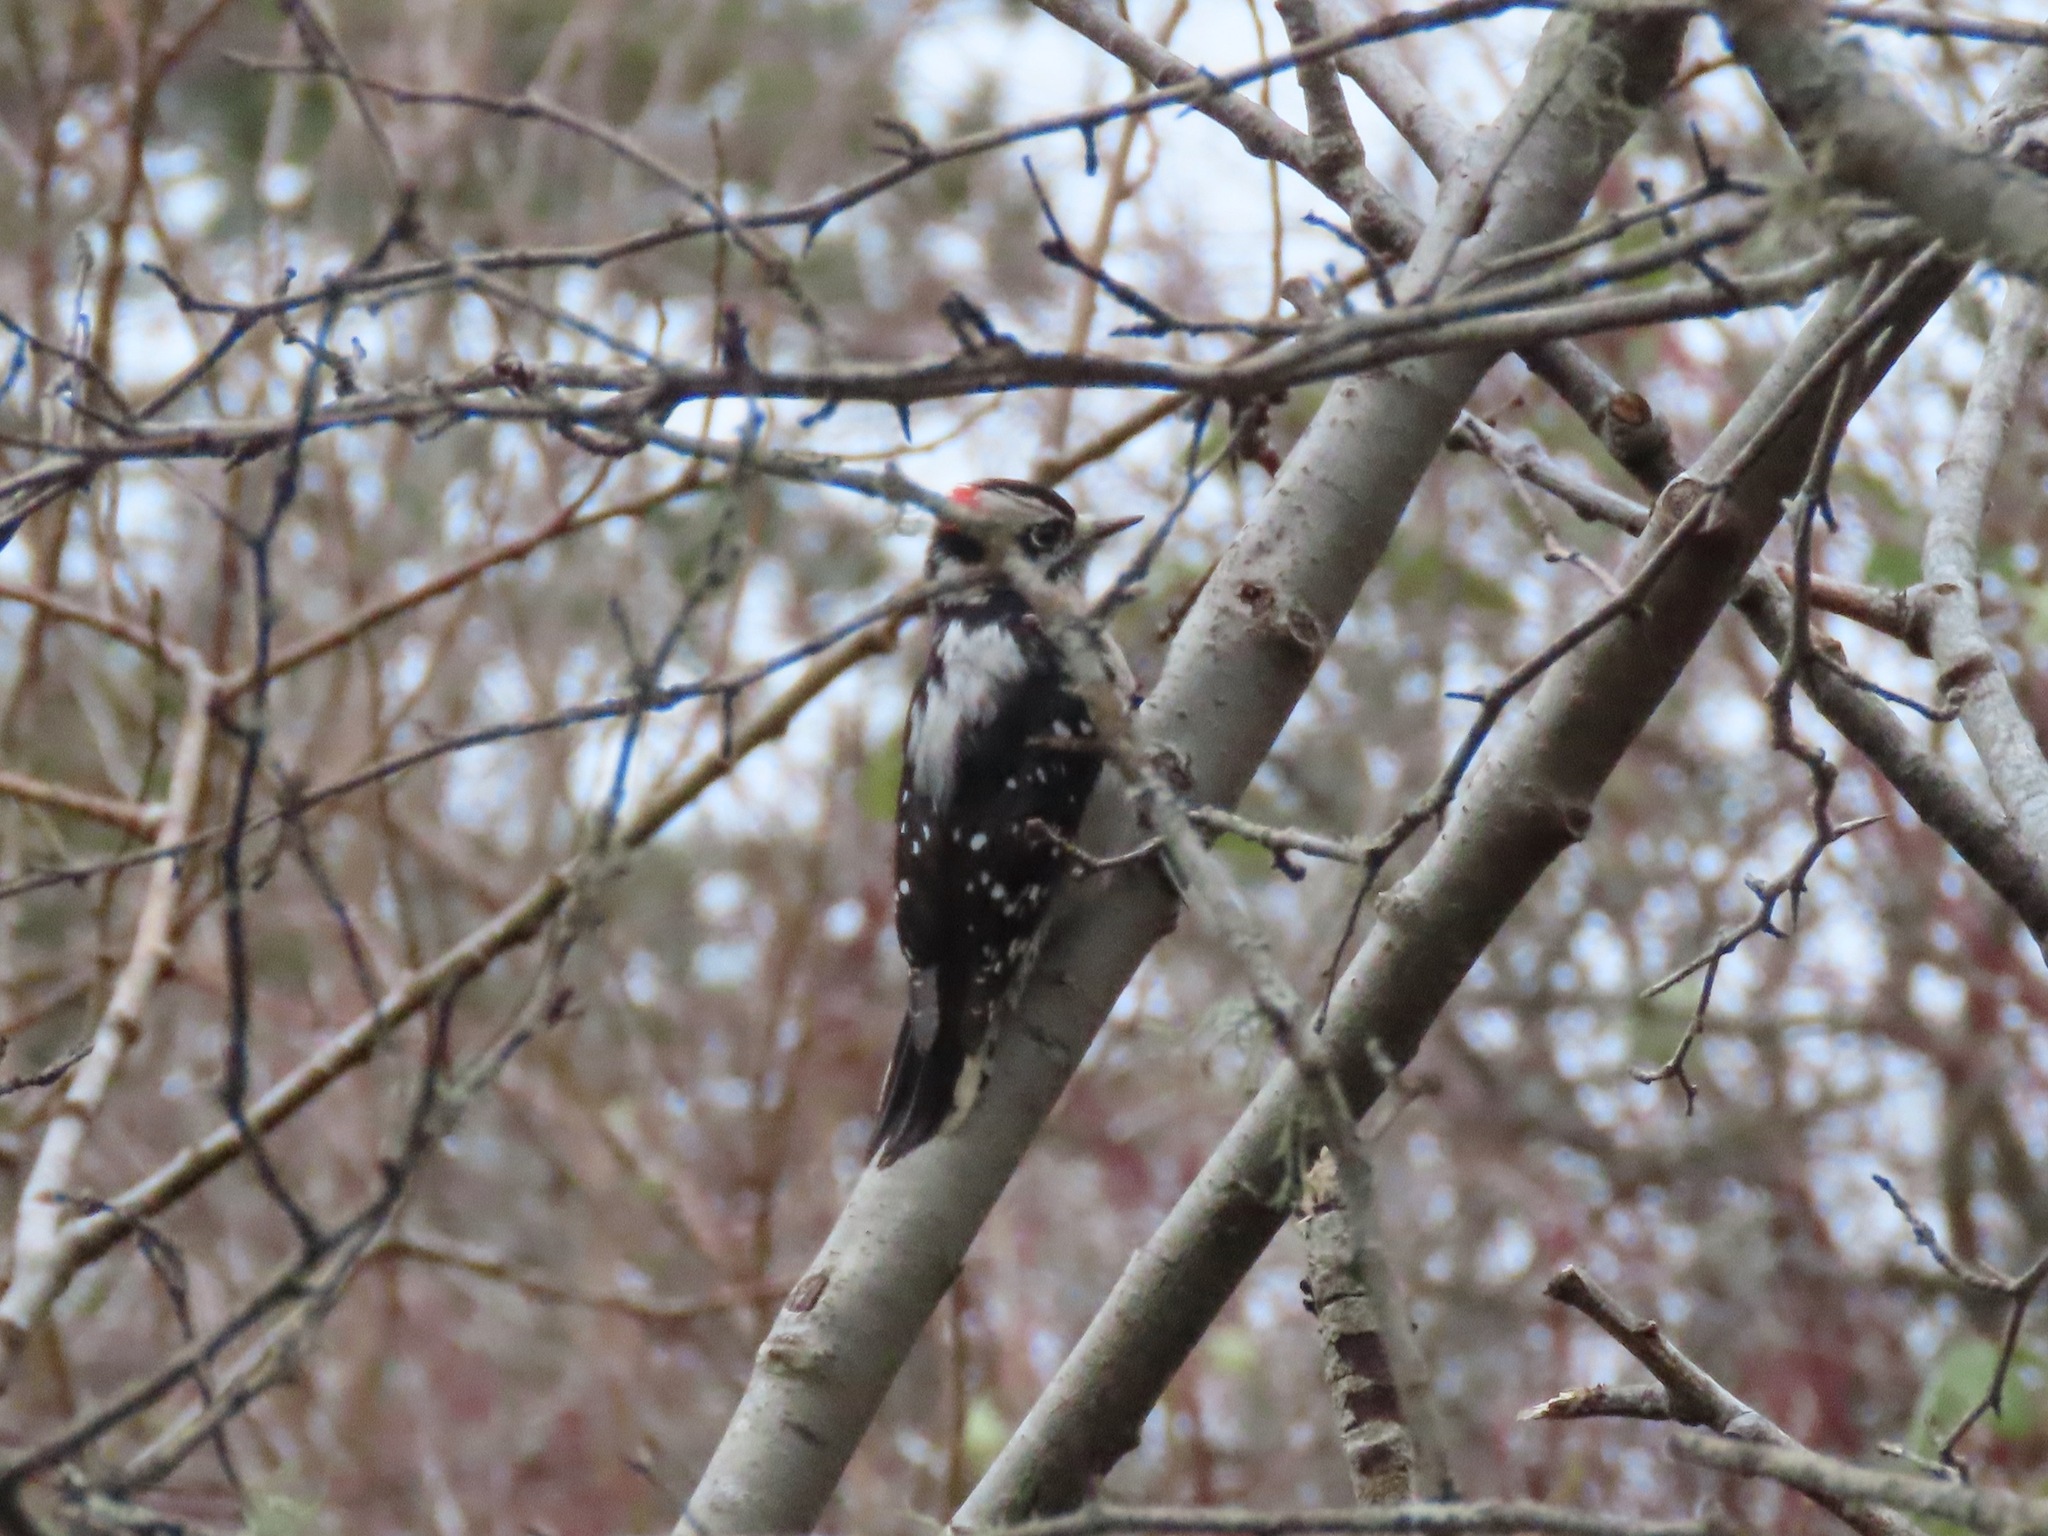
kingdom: Animalia
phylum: Chordata
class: Aves
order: Piciformes
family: Picidae
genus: Dryobates
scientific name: Dryobates pubescens
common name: Downy woodpecker
